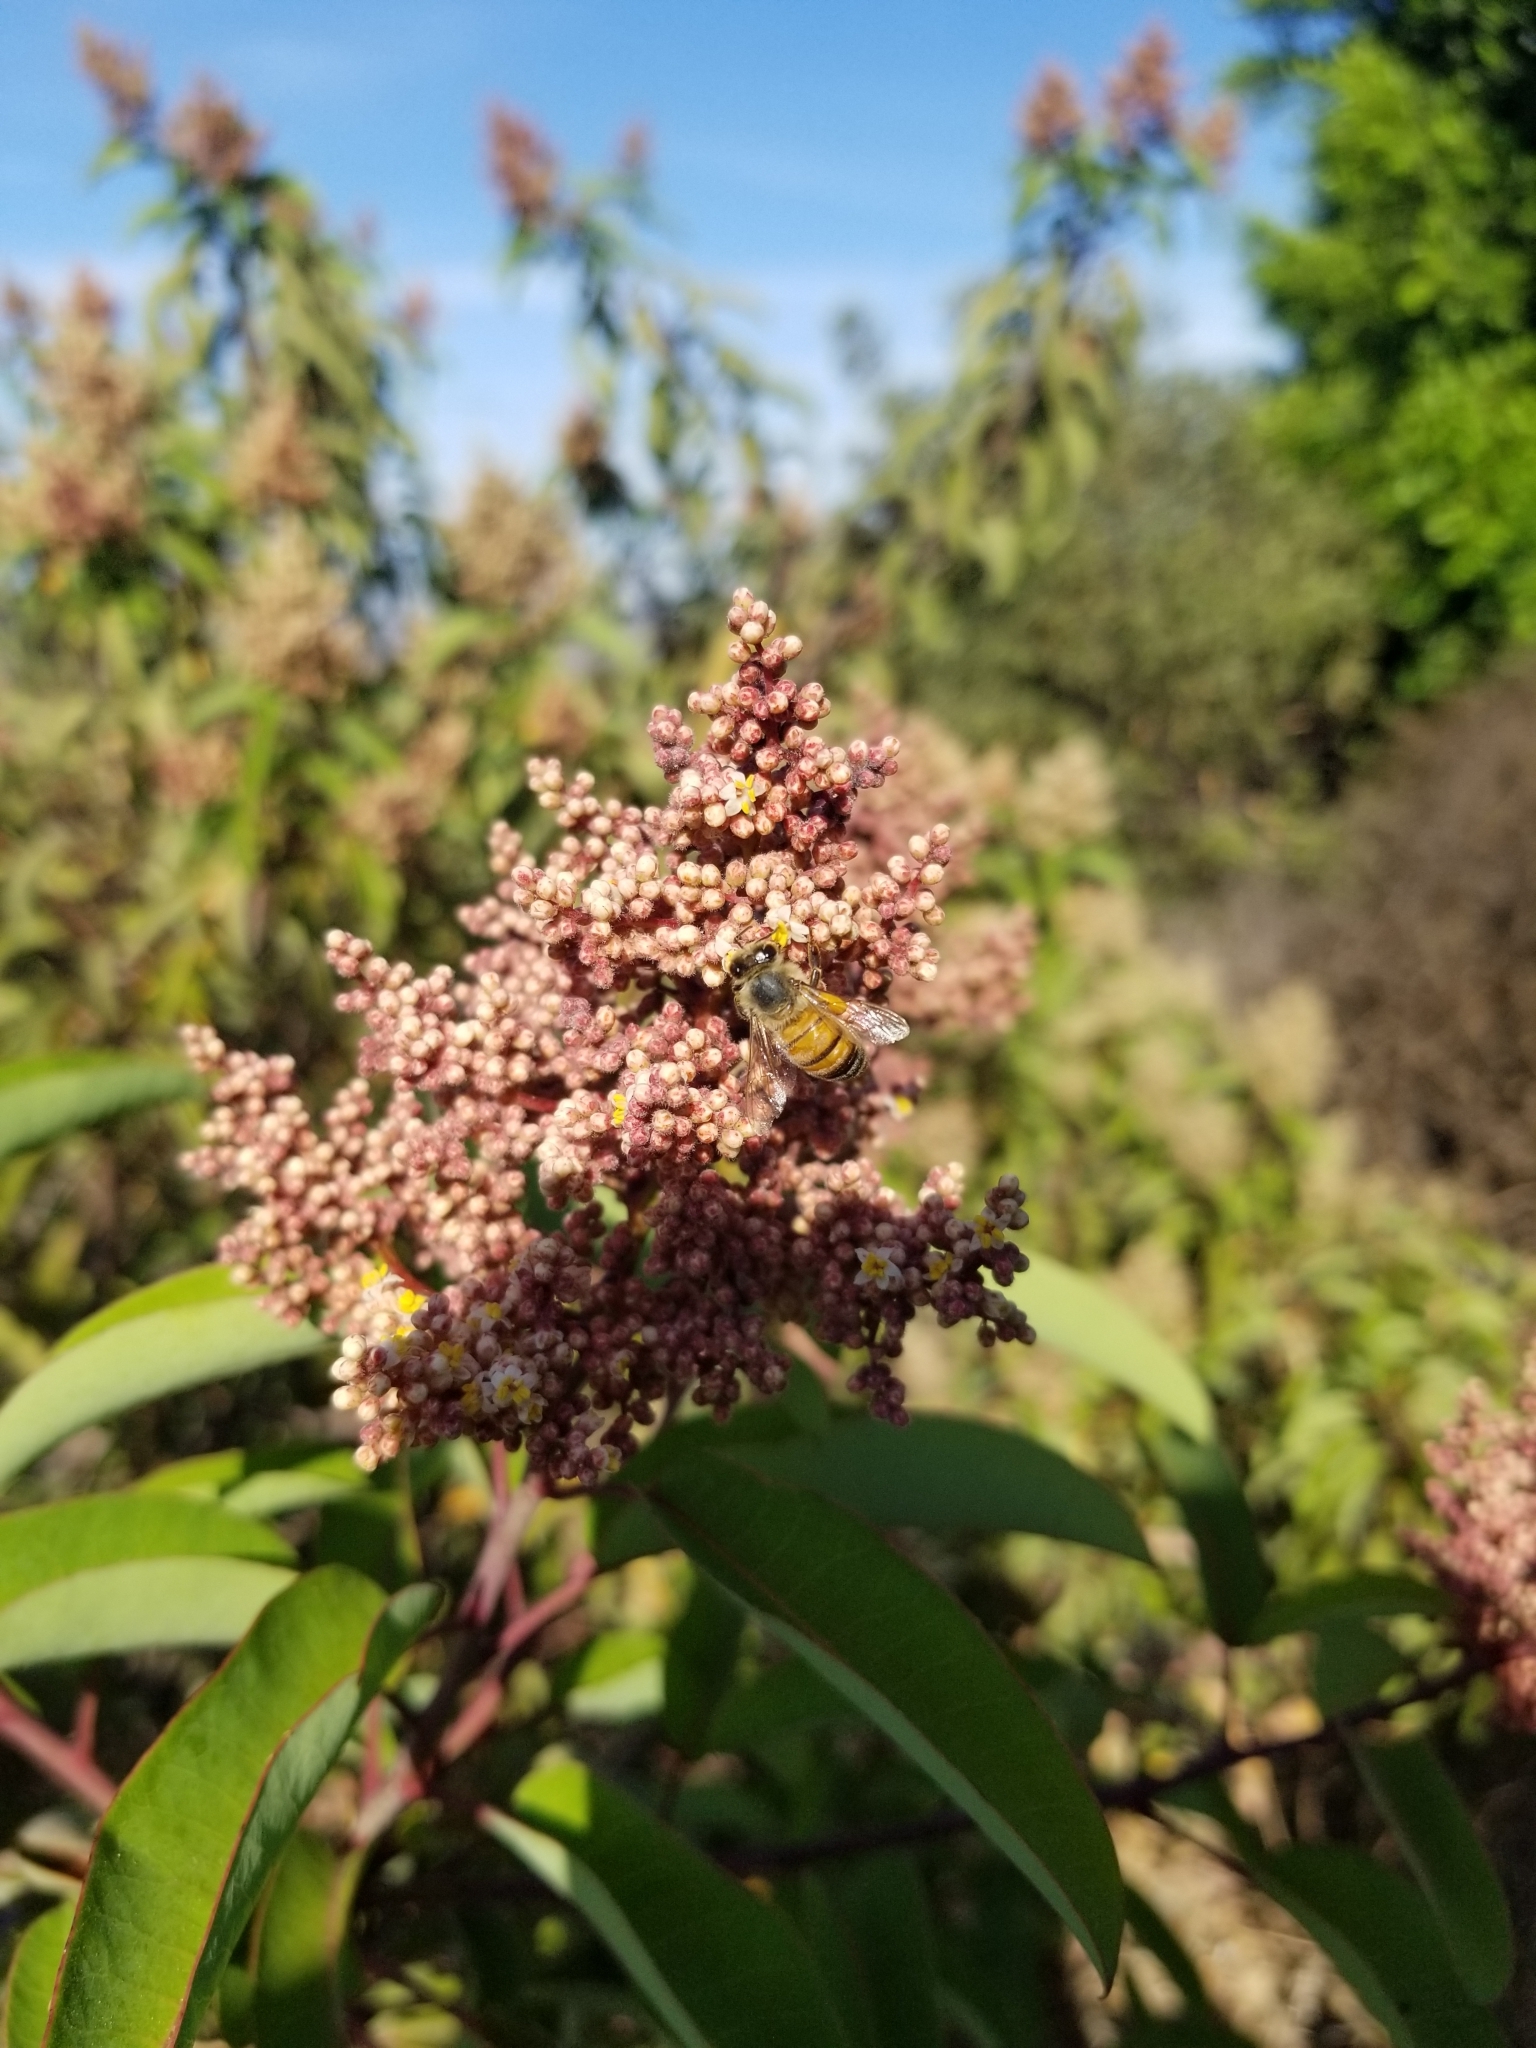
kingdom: Plantae
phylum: Tracheophyta
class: Magnoliopsida
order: Sapindales
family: Anacardiaceae
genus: Malosma
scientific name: Malosma laurina
